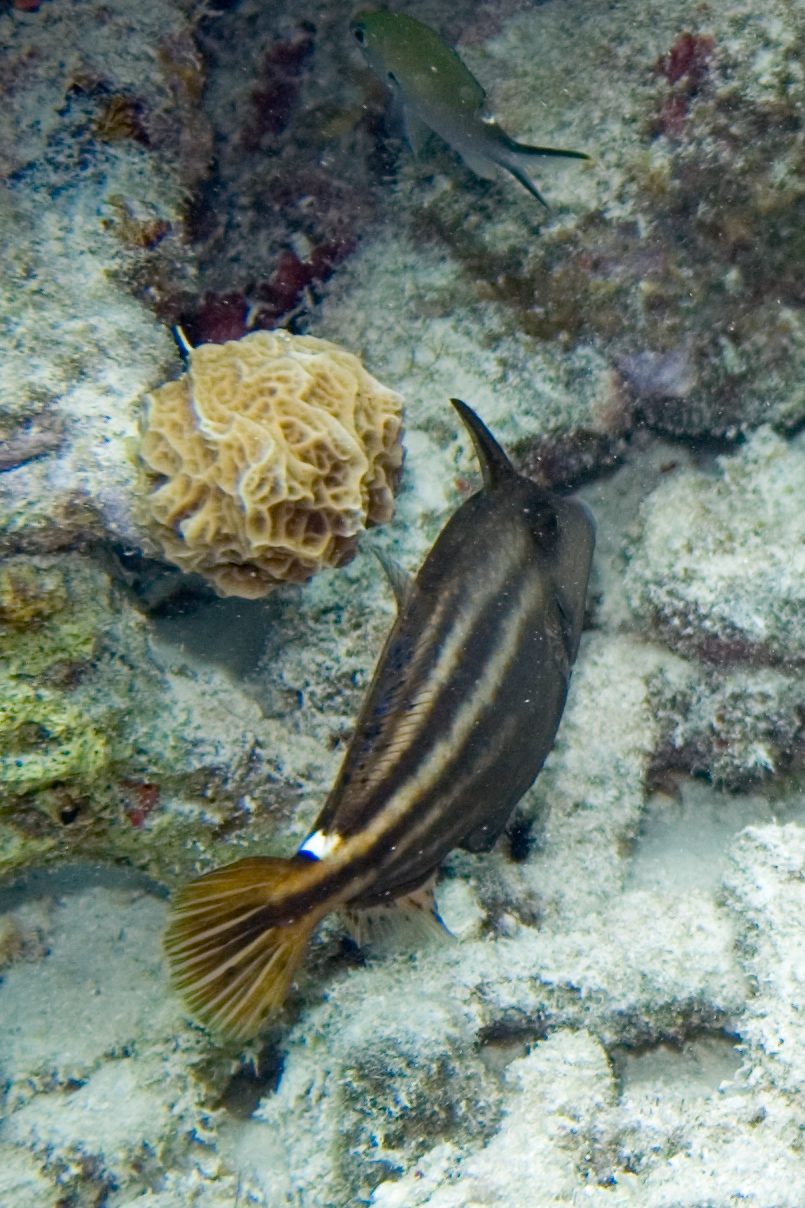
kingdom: Animalia
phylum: Chordata
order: Tetraodontiformes
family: Monacanthidae
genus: Cantherhines
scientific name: Cantherhines pullus
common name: Orangespotted filefish
